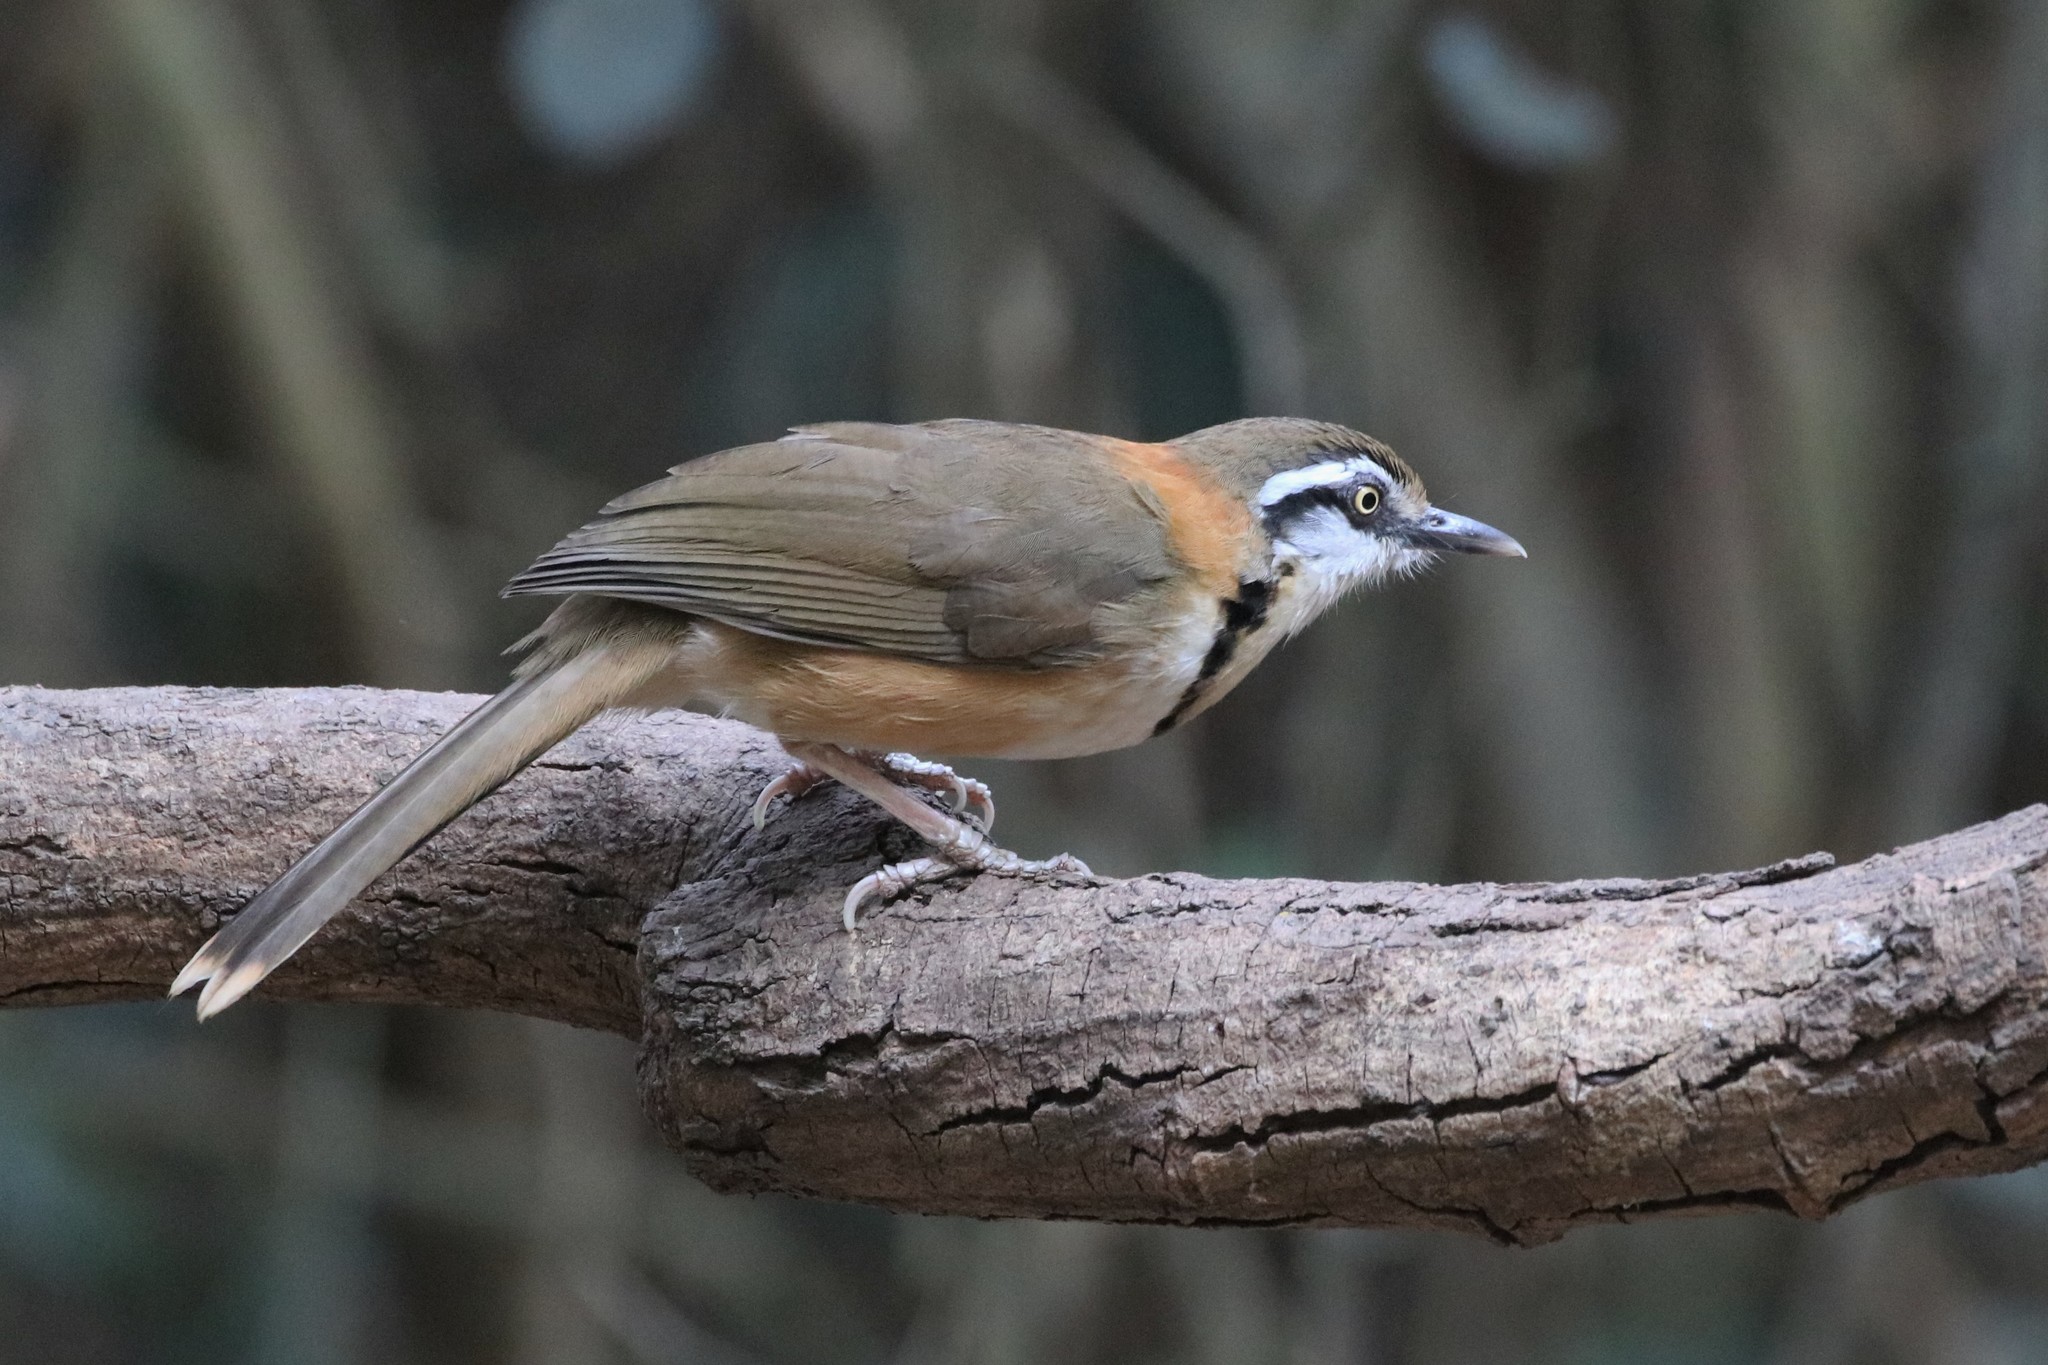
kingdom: Animalia
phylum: Chordata
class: Aves
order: Passeriformes
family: Leiothrichidae
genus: Garrulax
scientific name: Garrulax monileger
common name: Lesser necklaced laughingthrush
